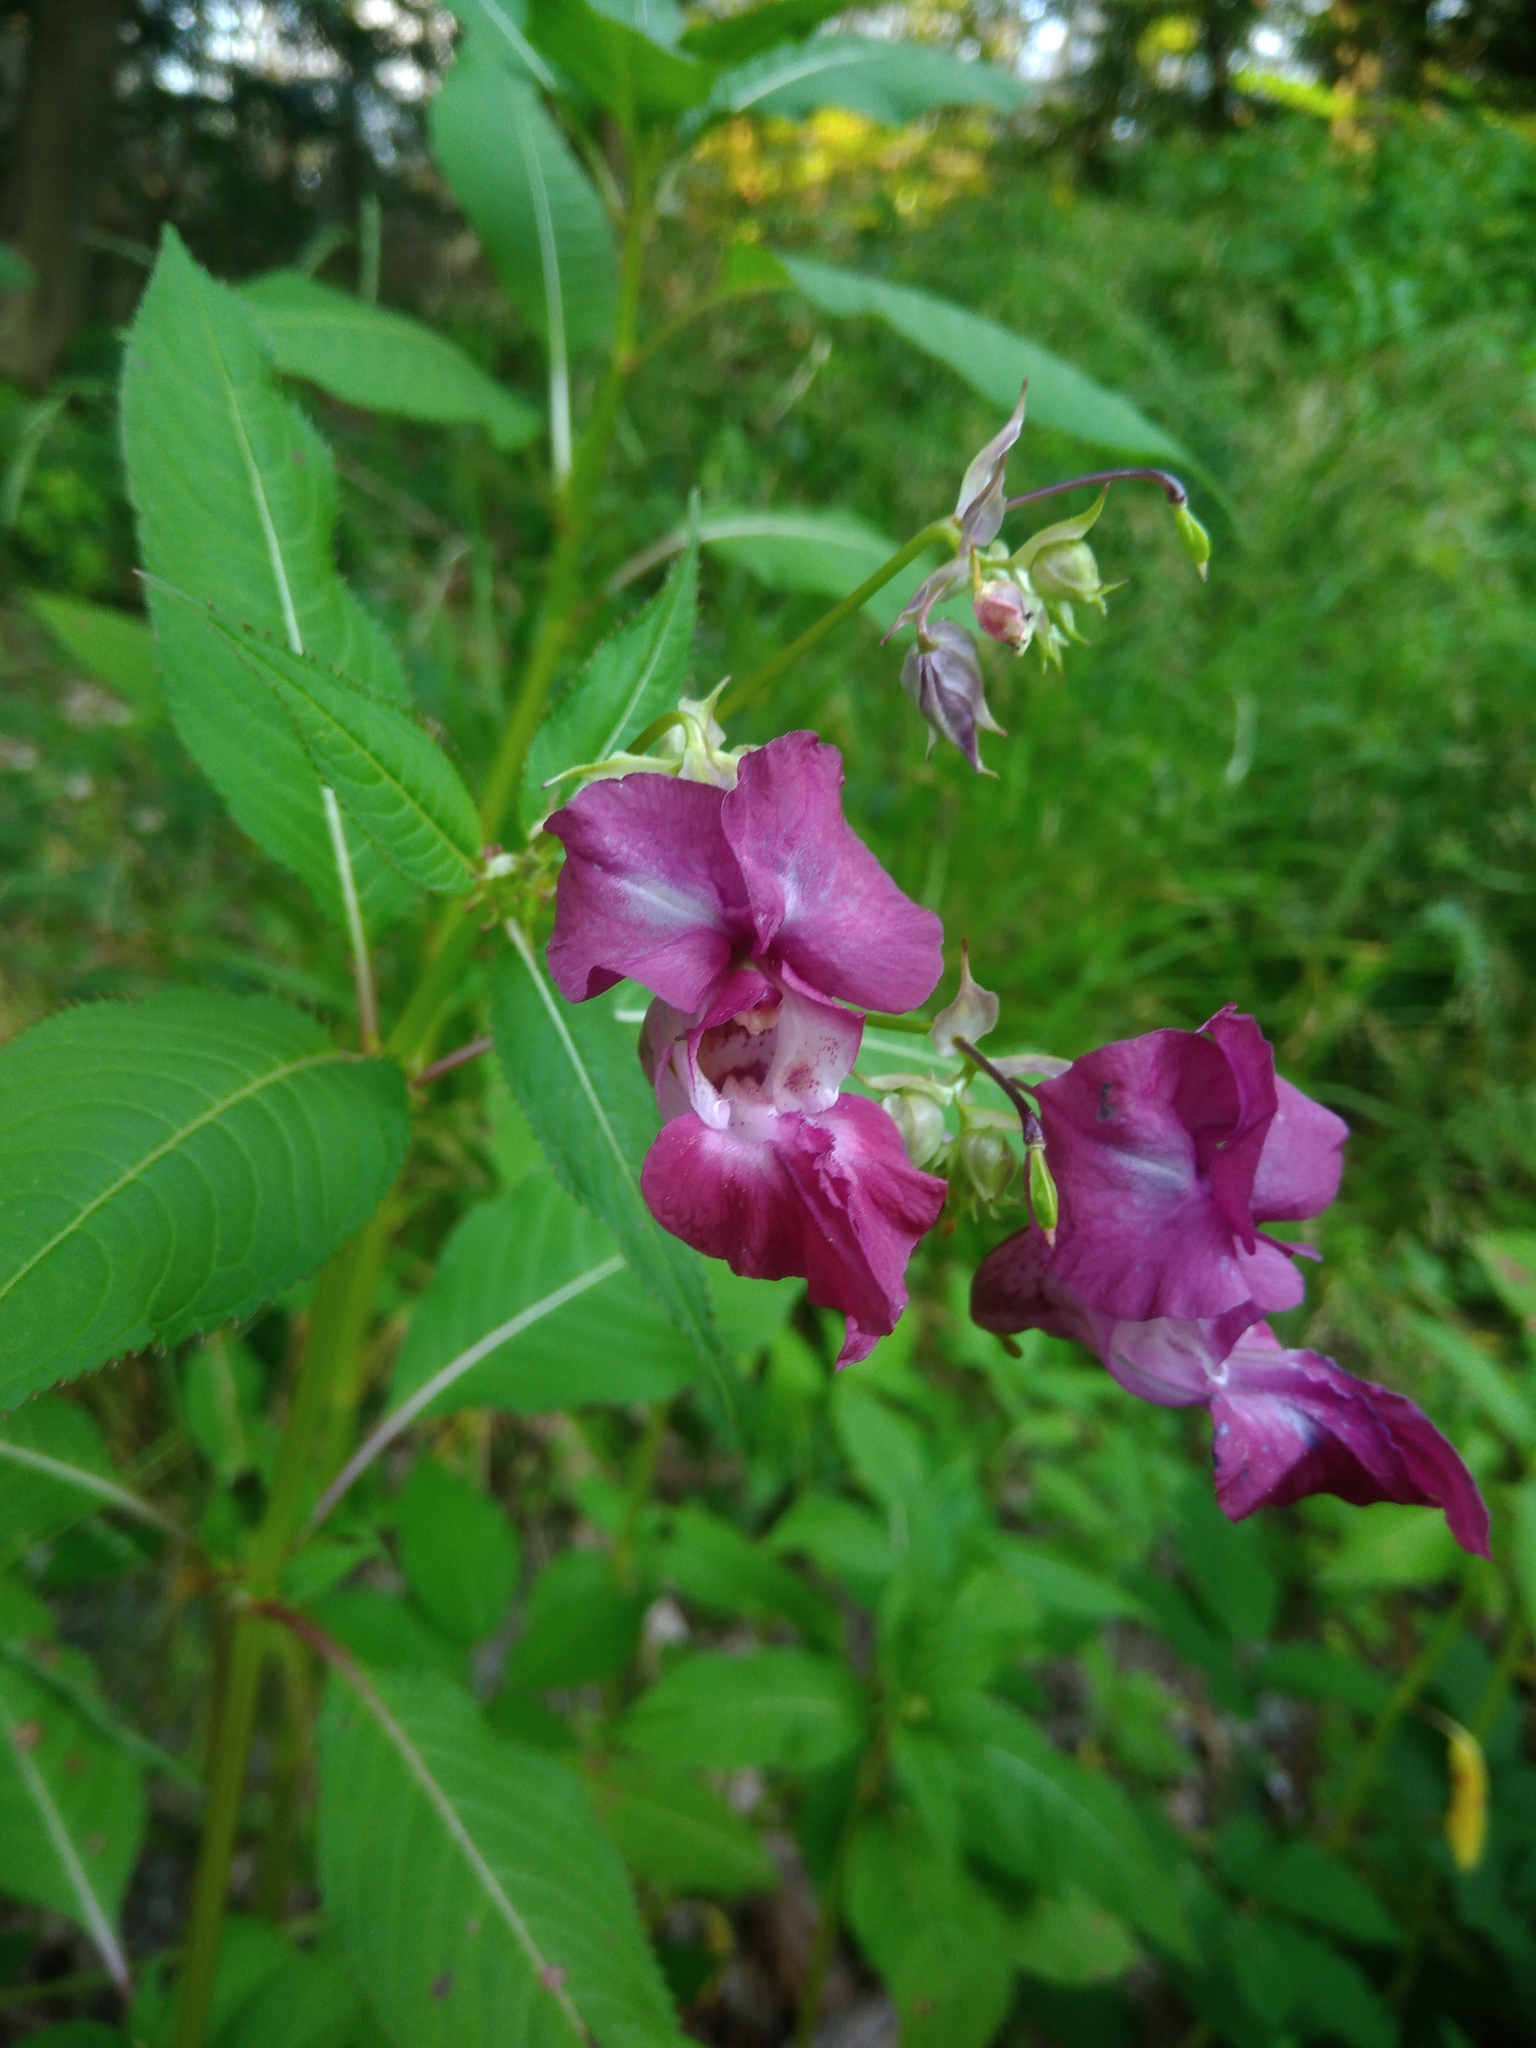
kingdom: Plantae
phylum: Tracheophyta
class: Magnoliopsida
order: Ericales
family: Balsaminaceae
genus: Impatiens
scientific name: Impatiens glandulifera
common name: Himalayan balsam
